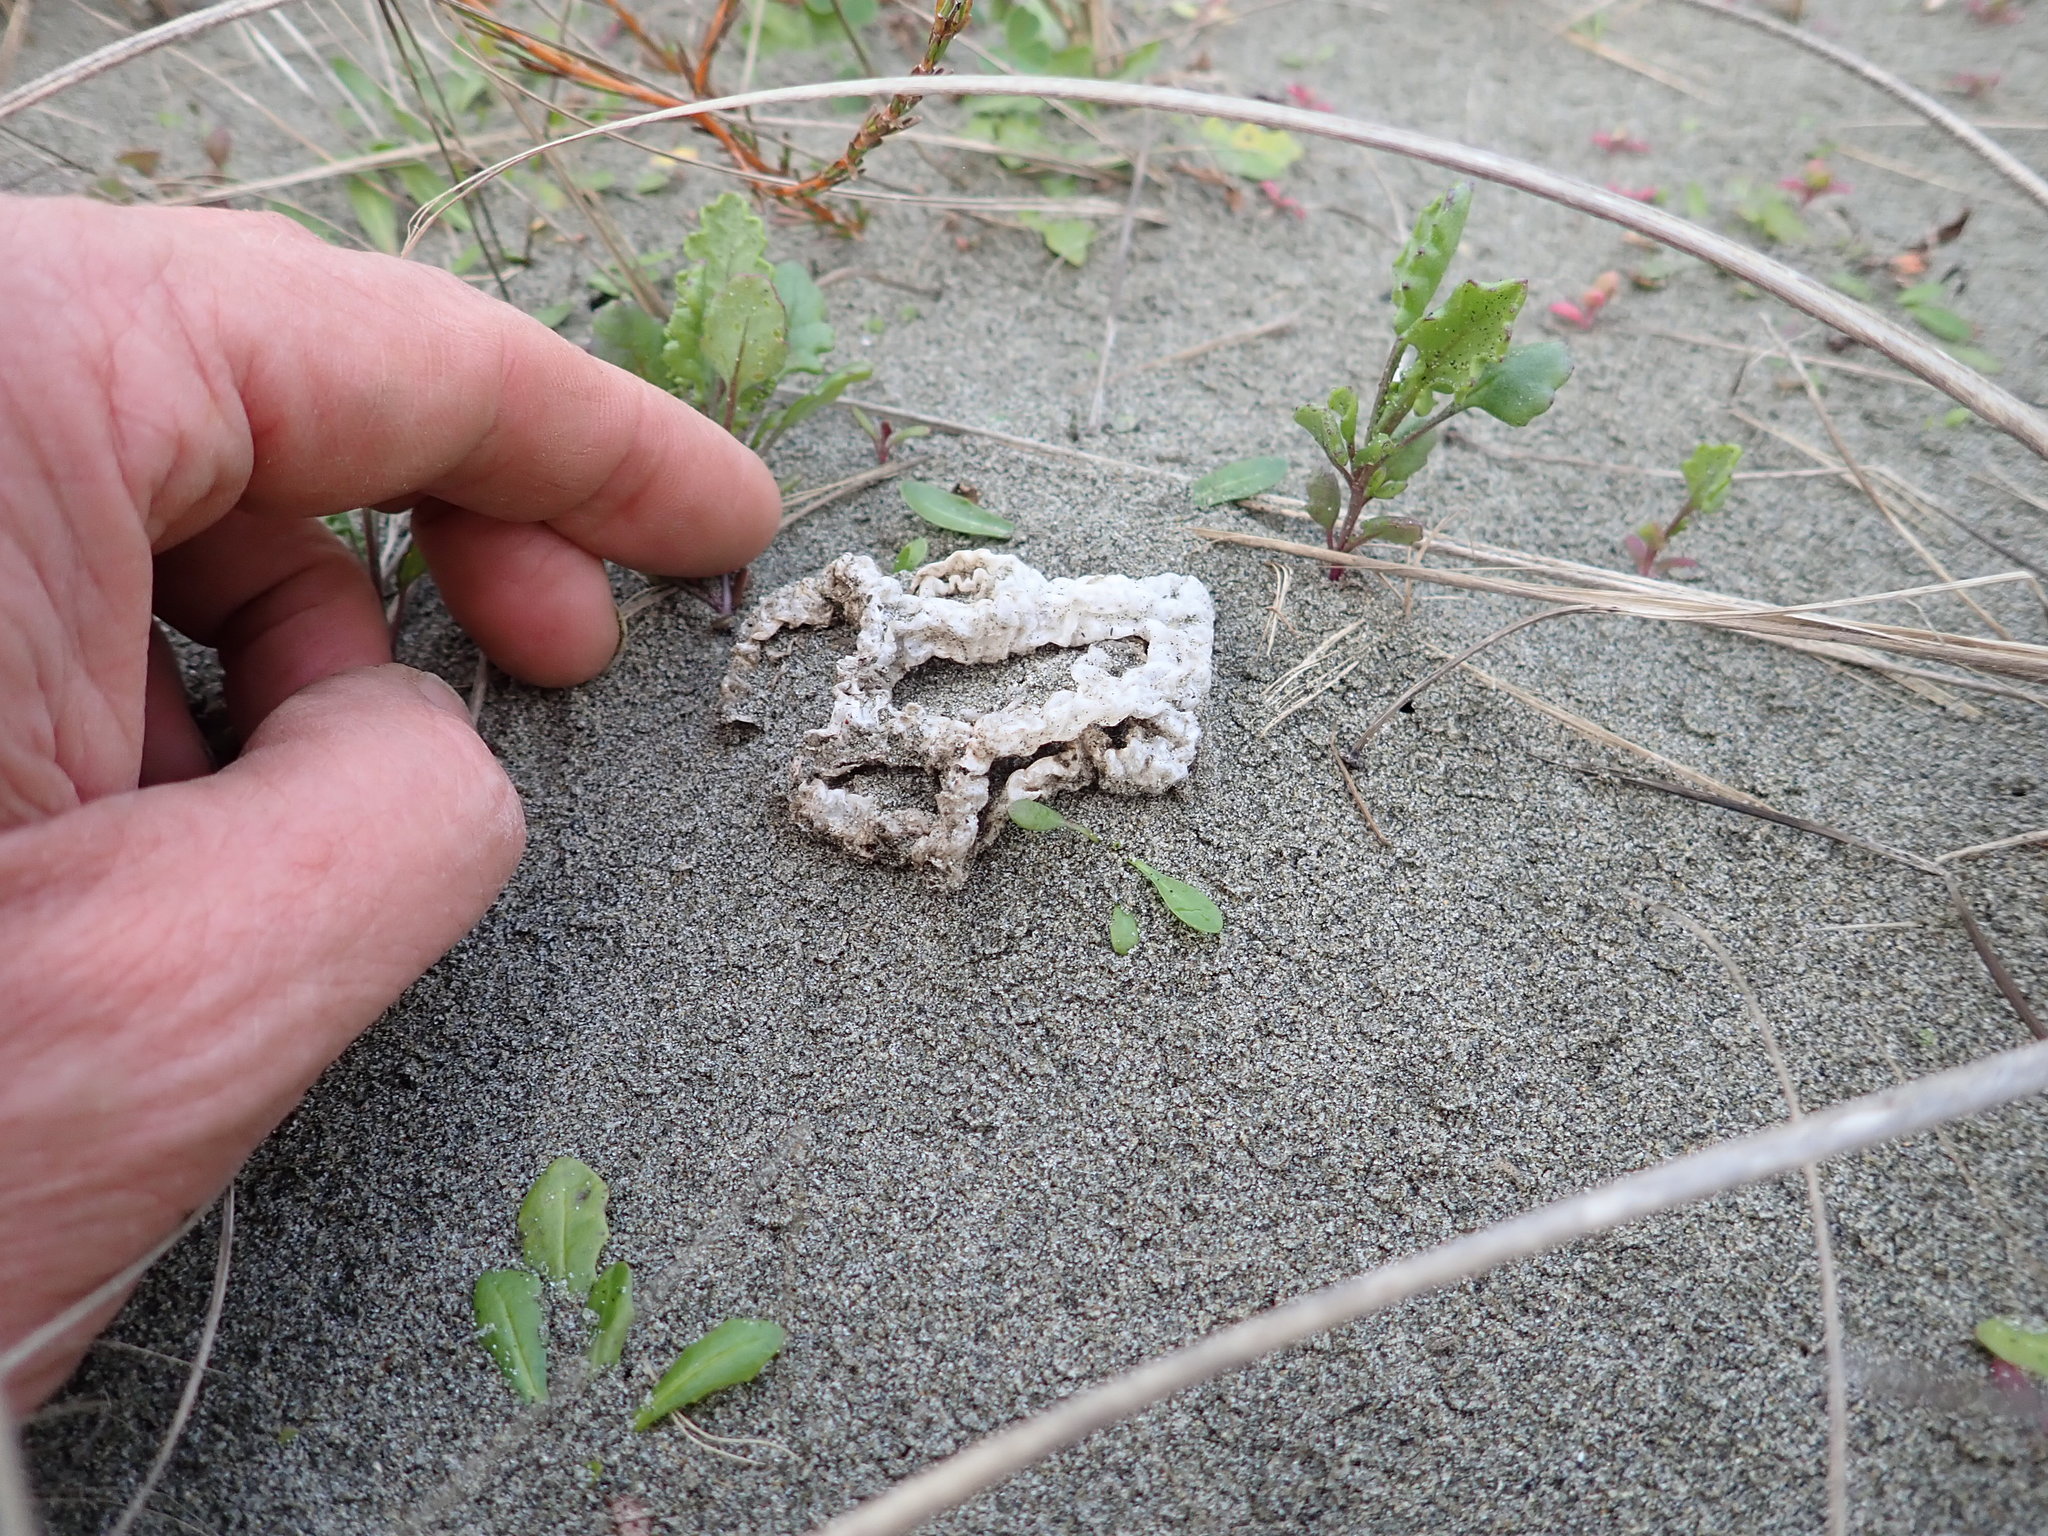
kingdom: Fungi
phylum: Basidiomycota
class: Agaricomycetes
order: Phallales
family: Phallaceae
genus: Ileodictyon
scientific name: Ileodictyon cibarium
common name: Basket fungus
